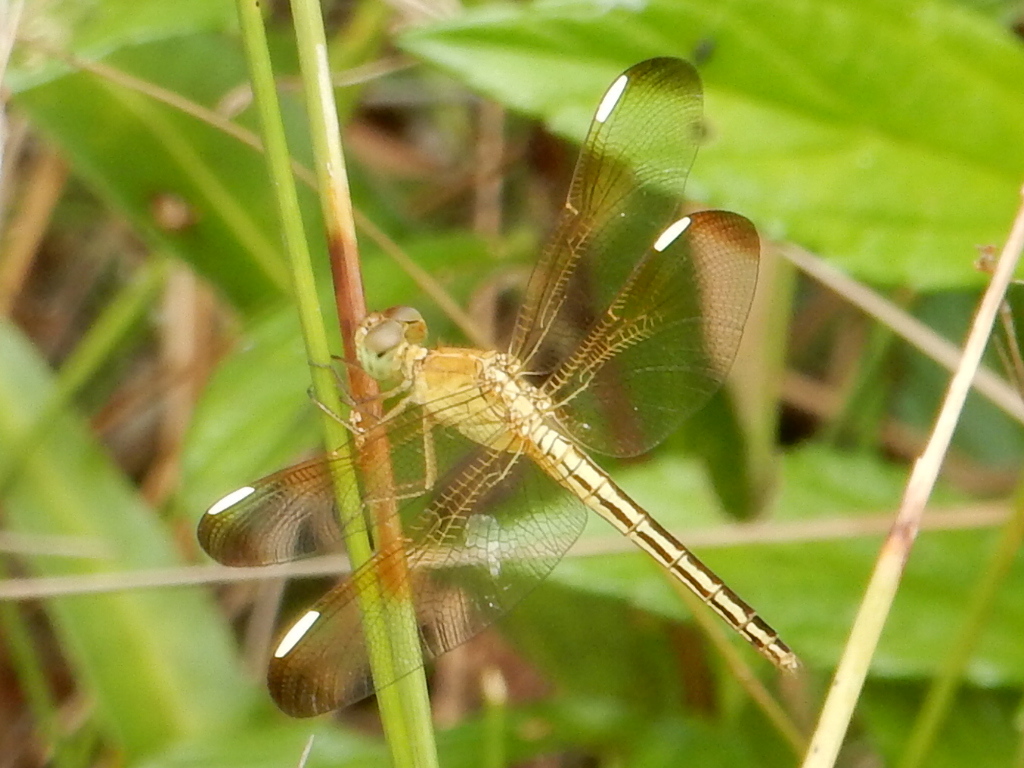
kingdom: Animalia
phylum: Arthropoda
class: Insecta
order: Odonata
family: Libellulidae
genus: Neurothemis
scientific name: Neurothemis stigmatizans
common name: Painted grasshawk
